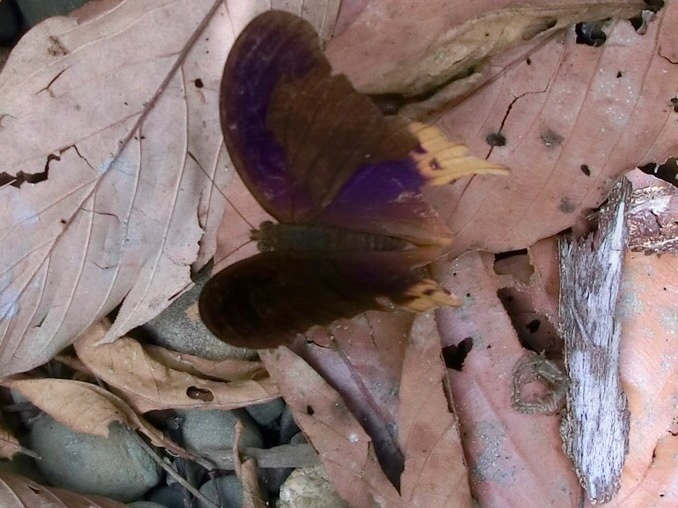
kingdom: Animalia
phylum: Arthropoda
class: Insecta
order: Lepidoptera
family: Nymphalidae
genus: Terinos
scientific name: Terinos clarissa
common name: Malayan assyrian
